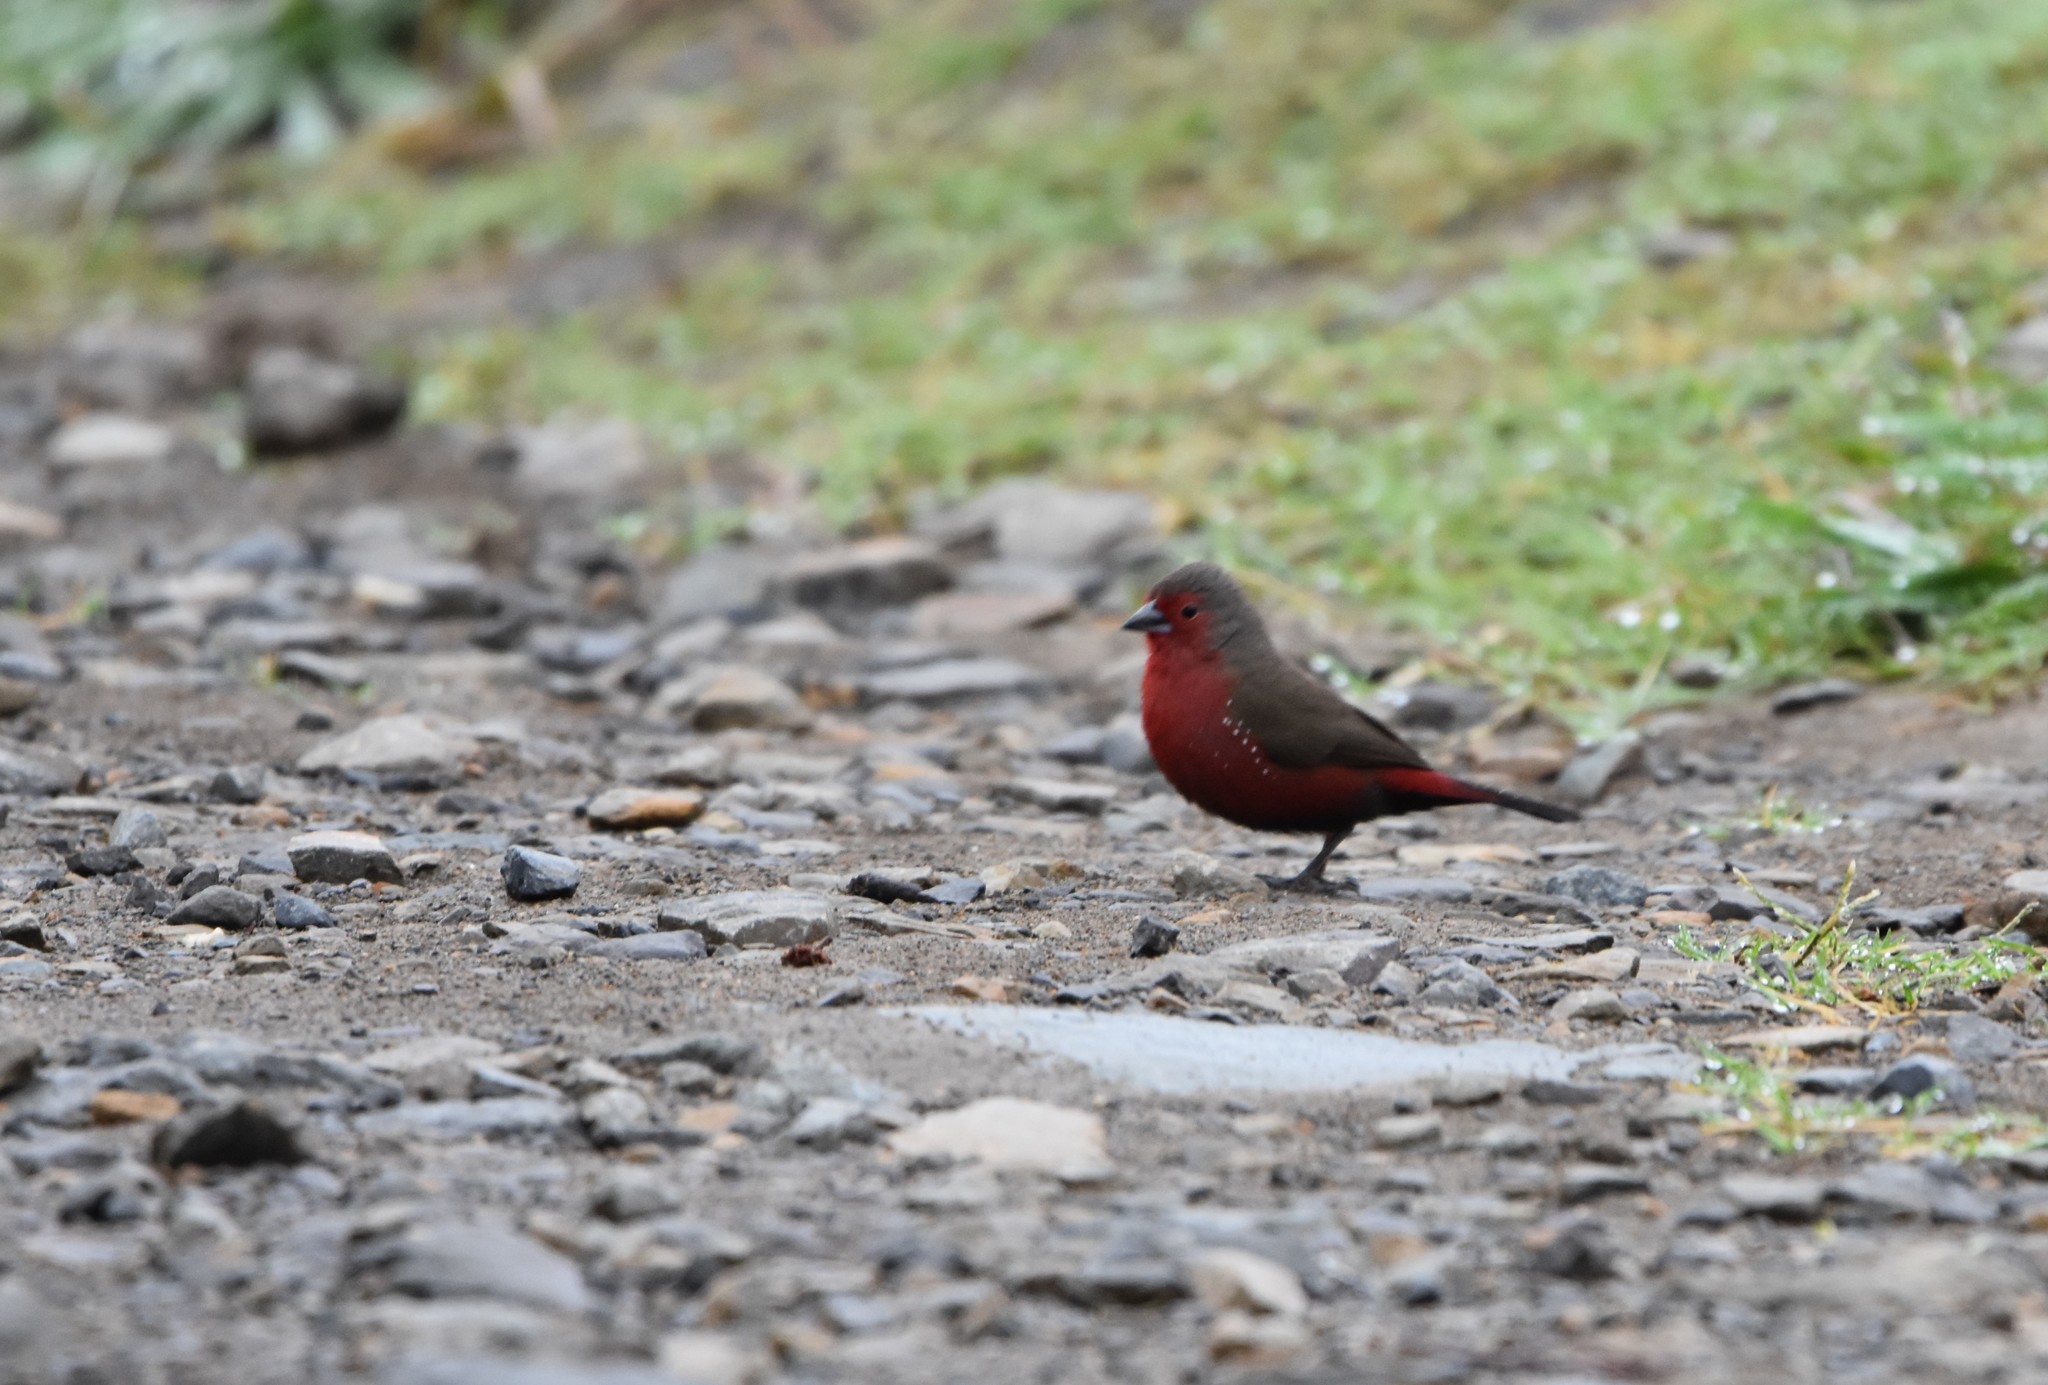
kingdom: Animalia
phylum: Chordata
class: Aves
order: Passeriformes
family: Estrildidae
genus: Lagonosticta
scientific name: Lagonosticta rubricata
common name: African firefinch
